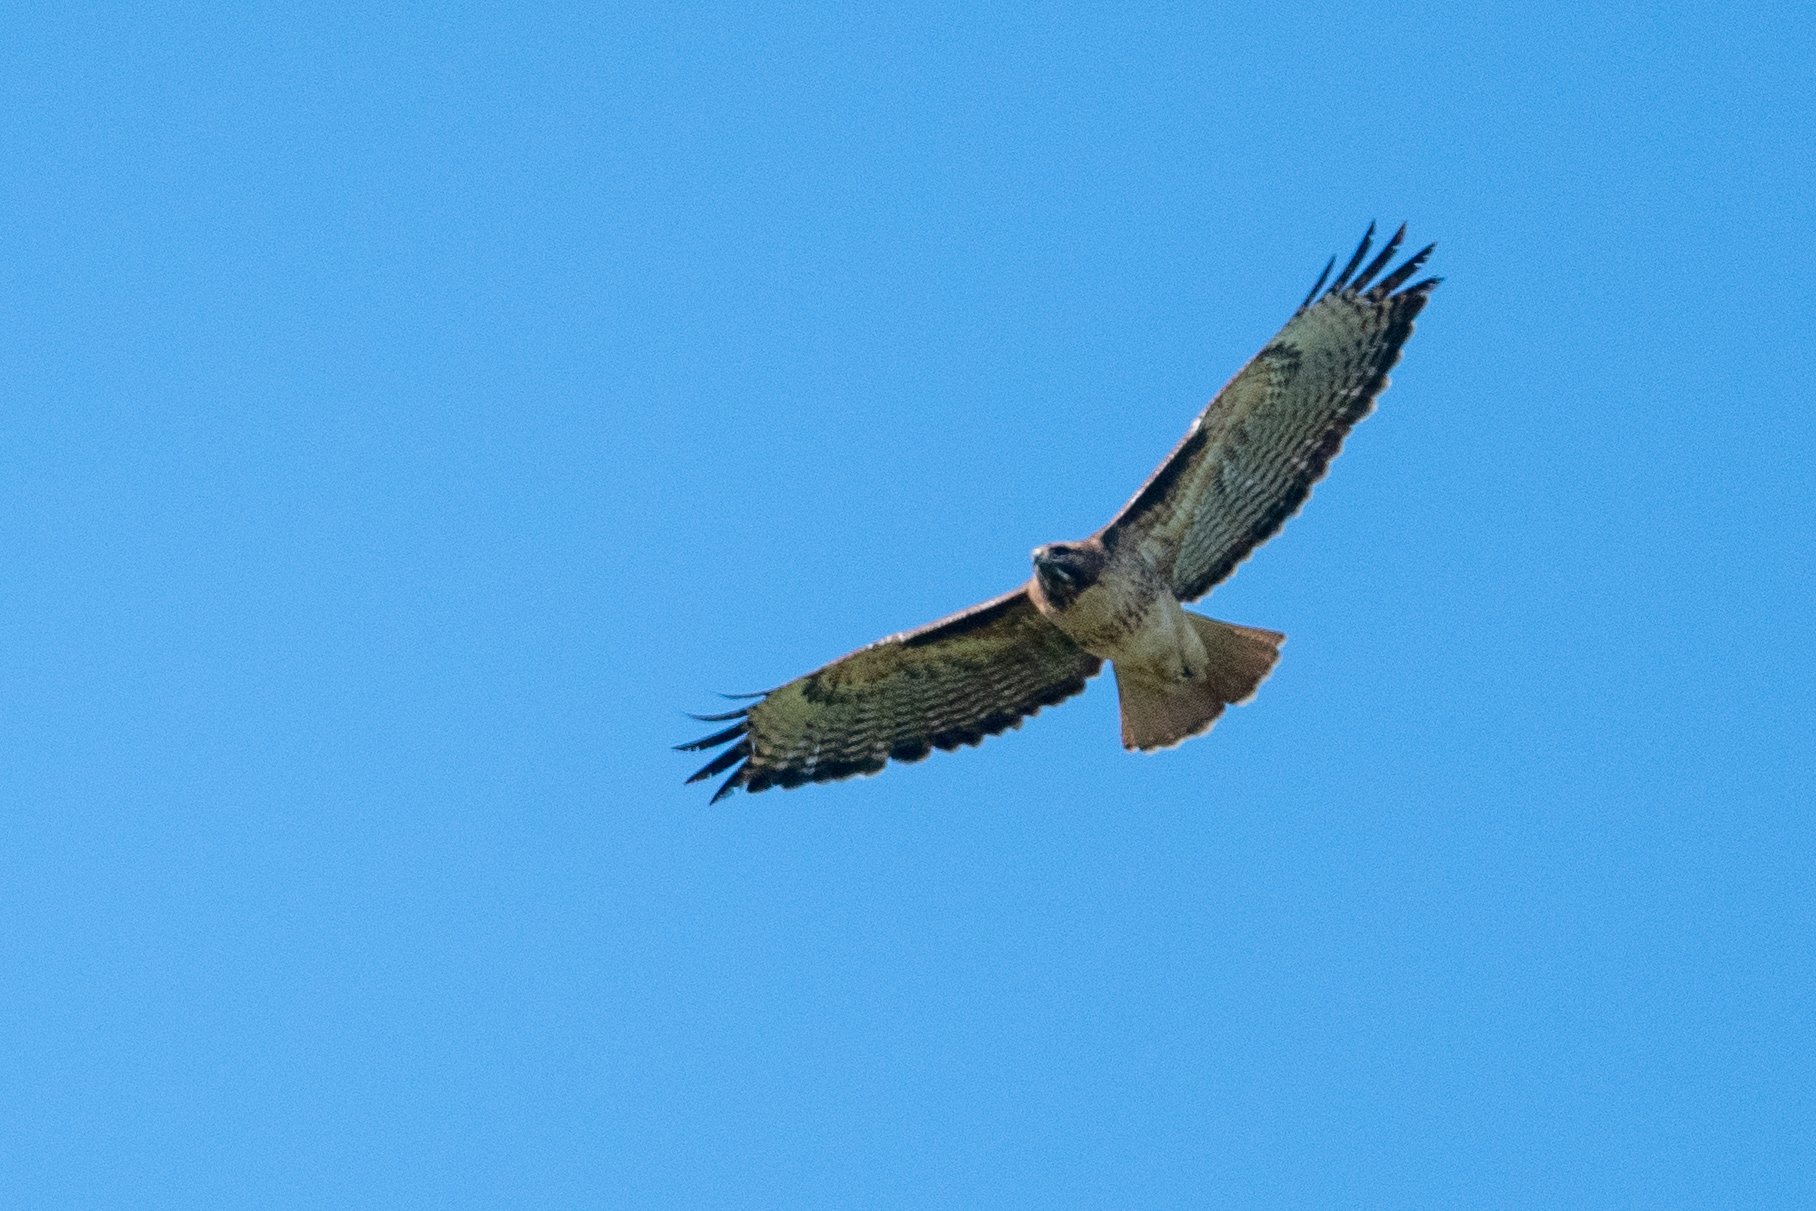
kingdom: Animalia
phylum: Chordata
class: Aves
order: Accipitriformes
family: Accipitridae
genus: Buteo
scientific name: Buteo jamaicensis
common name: Red-tailed hawk
